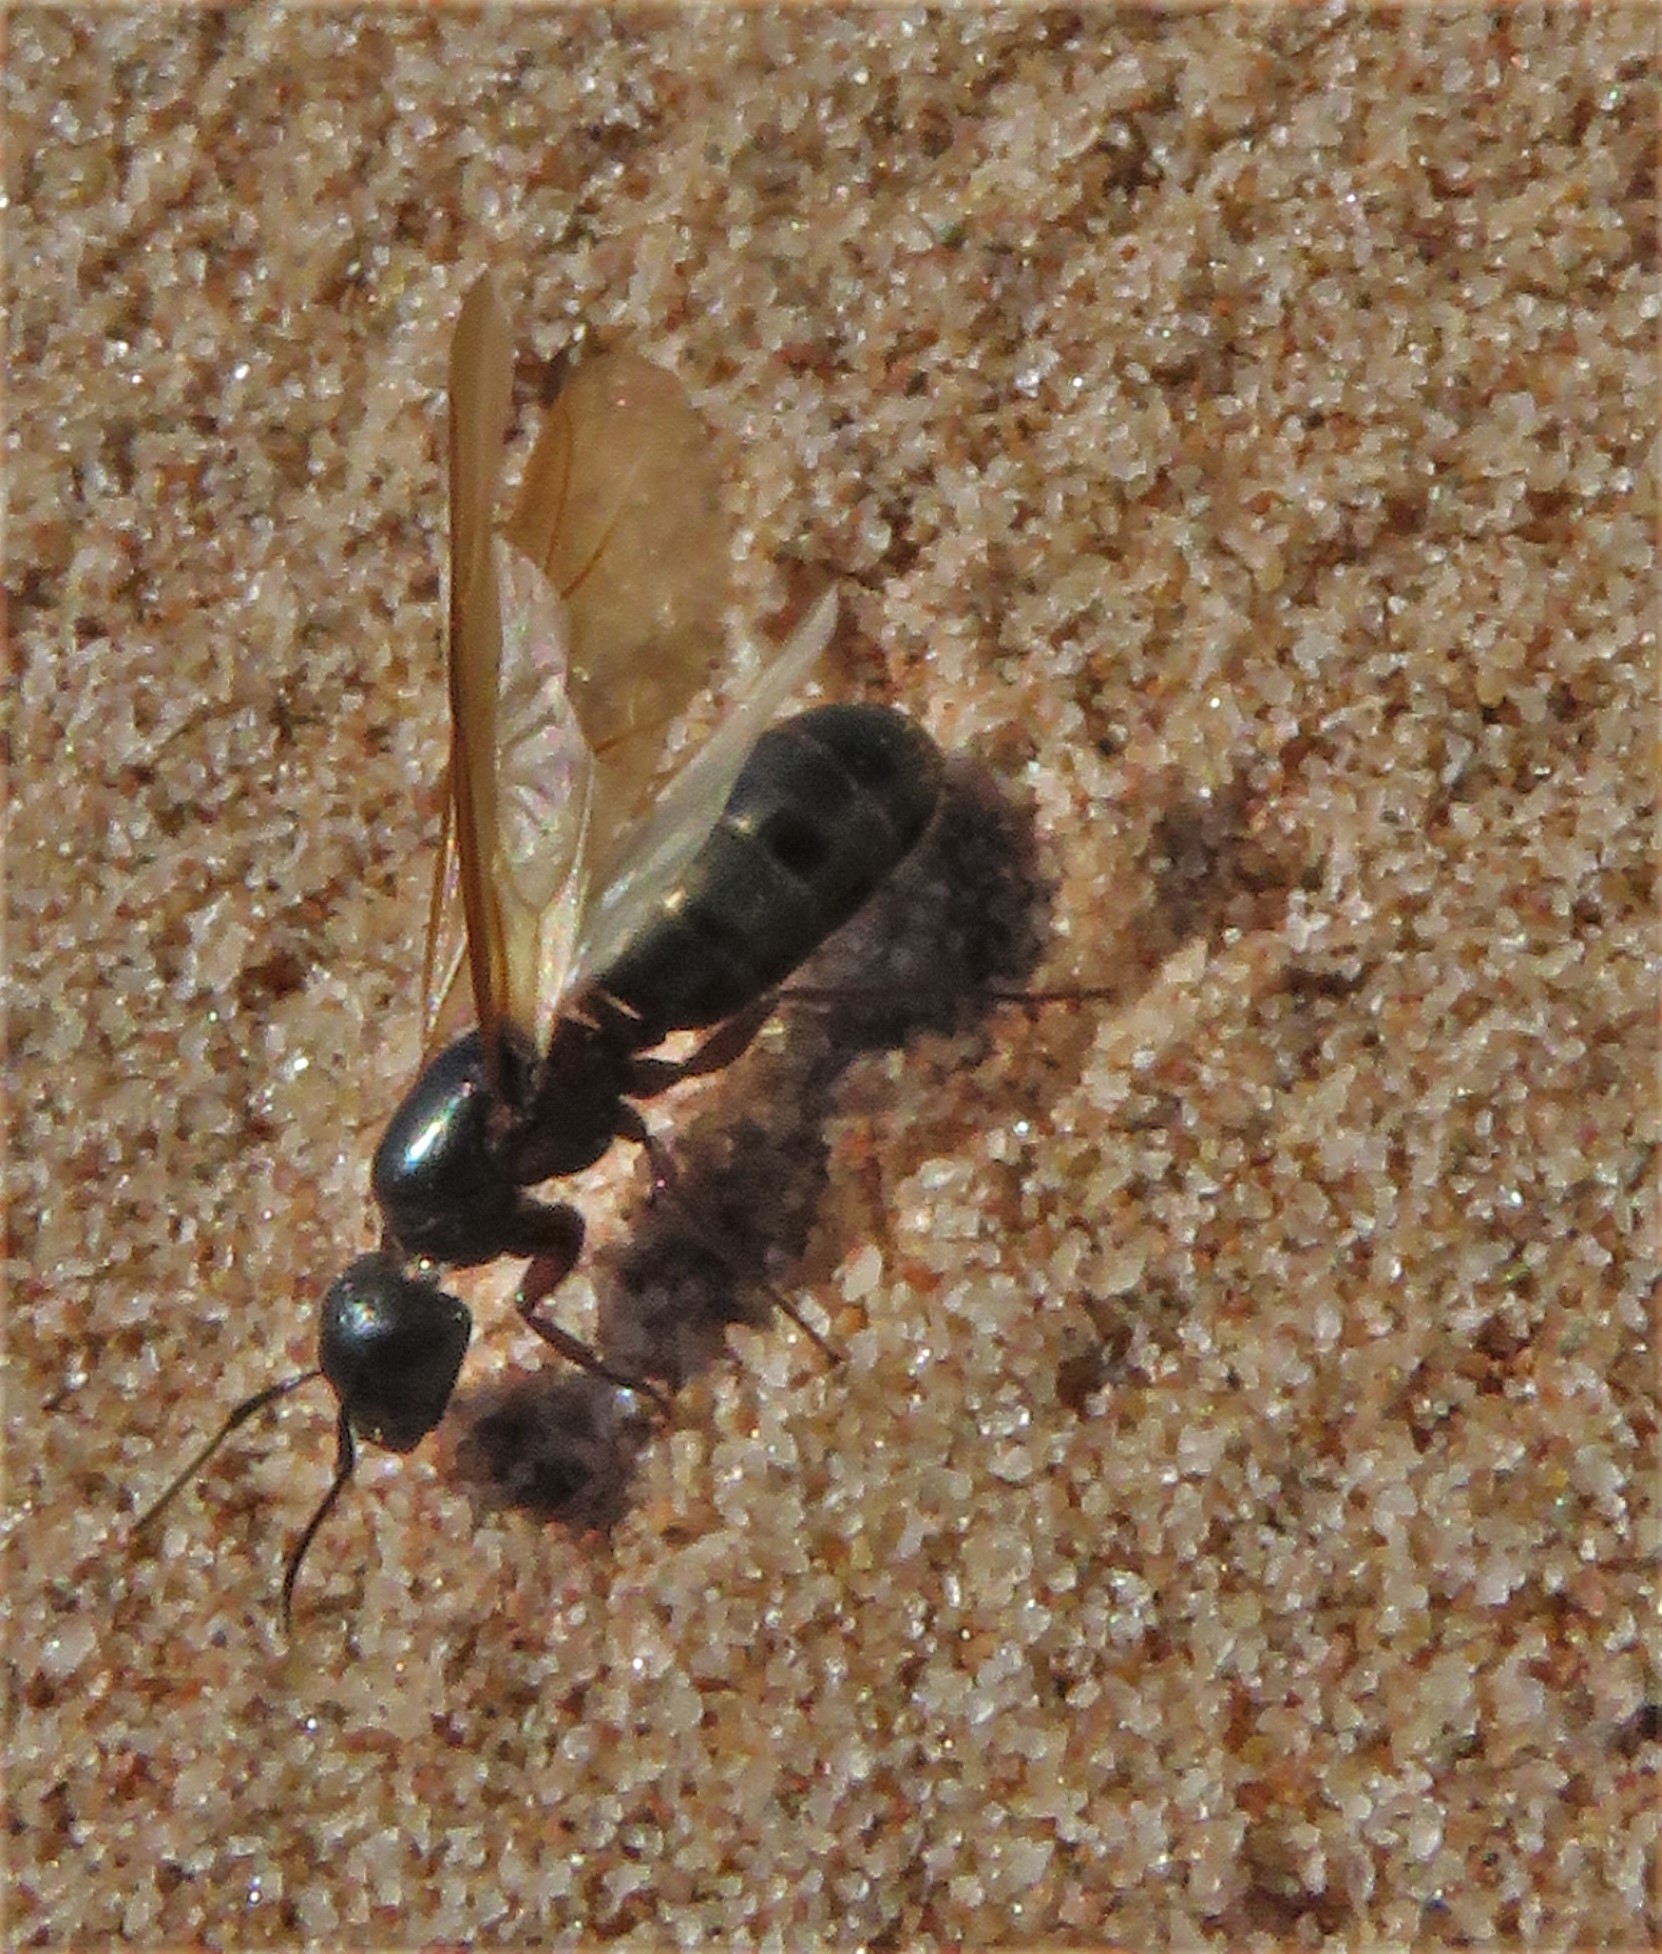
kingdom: Animalia
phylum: Arthropoda
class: Insecta
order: Hymenoptera
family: Formicidae
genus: Camponotus
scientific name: Camponotus herculeanus
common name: Hercules ant
